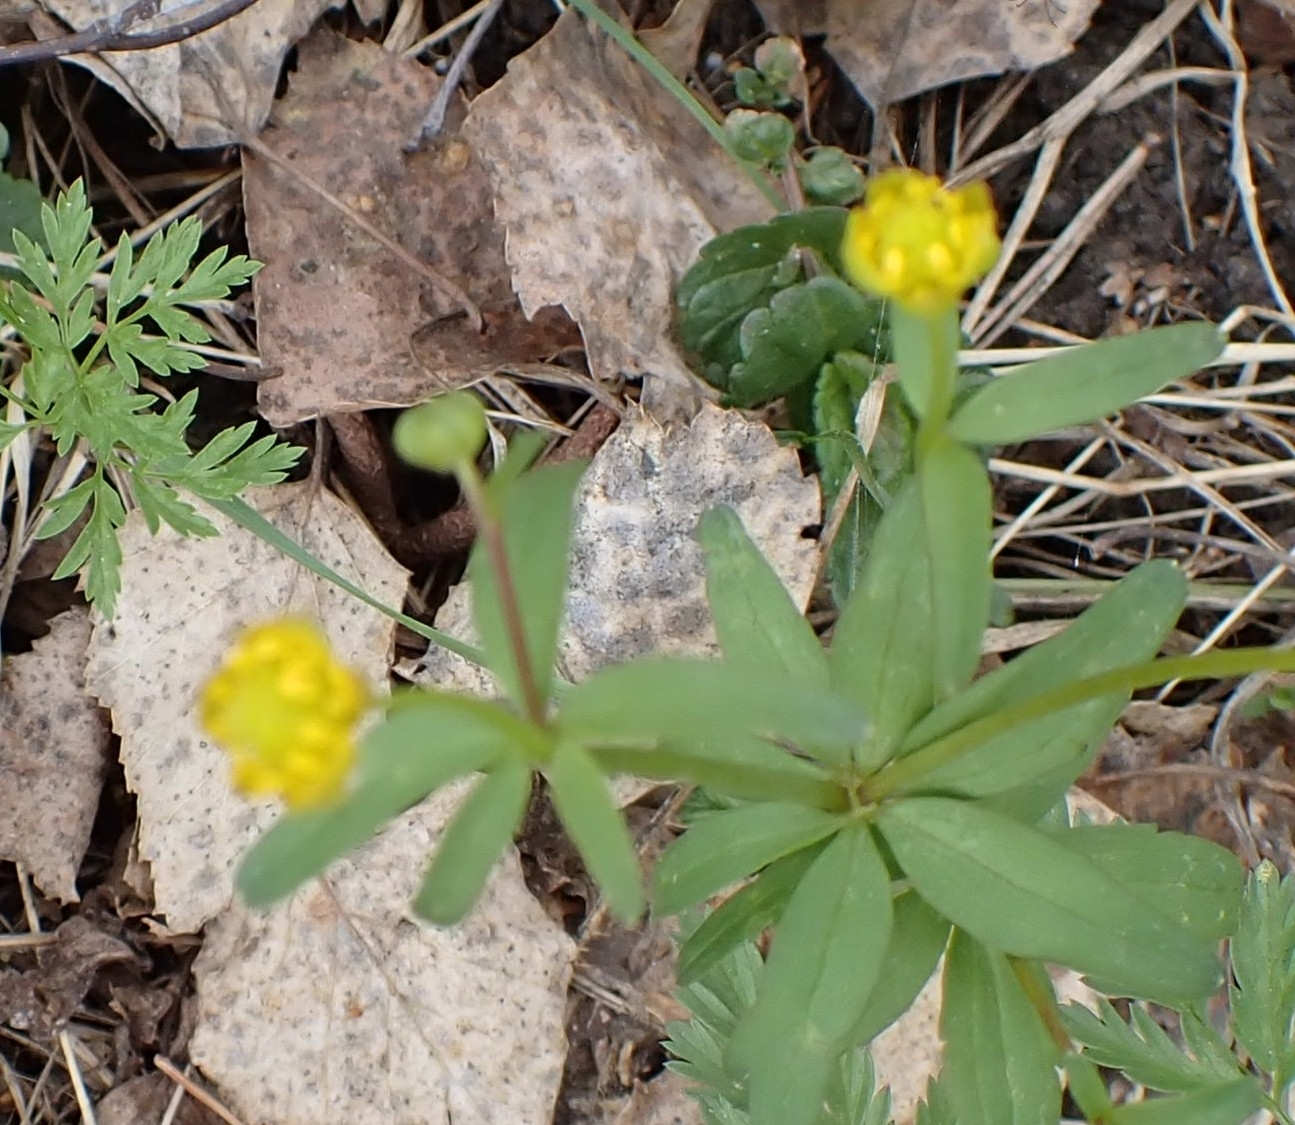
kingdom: Plantae
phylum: Tracheophyta
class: Magnoliopsida
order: Ranunculales
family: Ranunculaceae
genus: Ranunculus
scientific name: Ranunculus monophyllus
